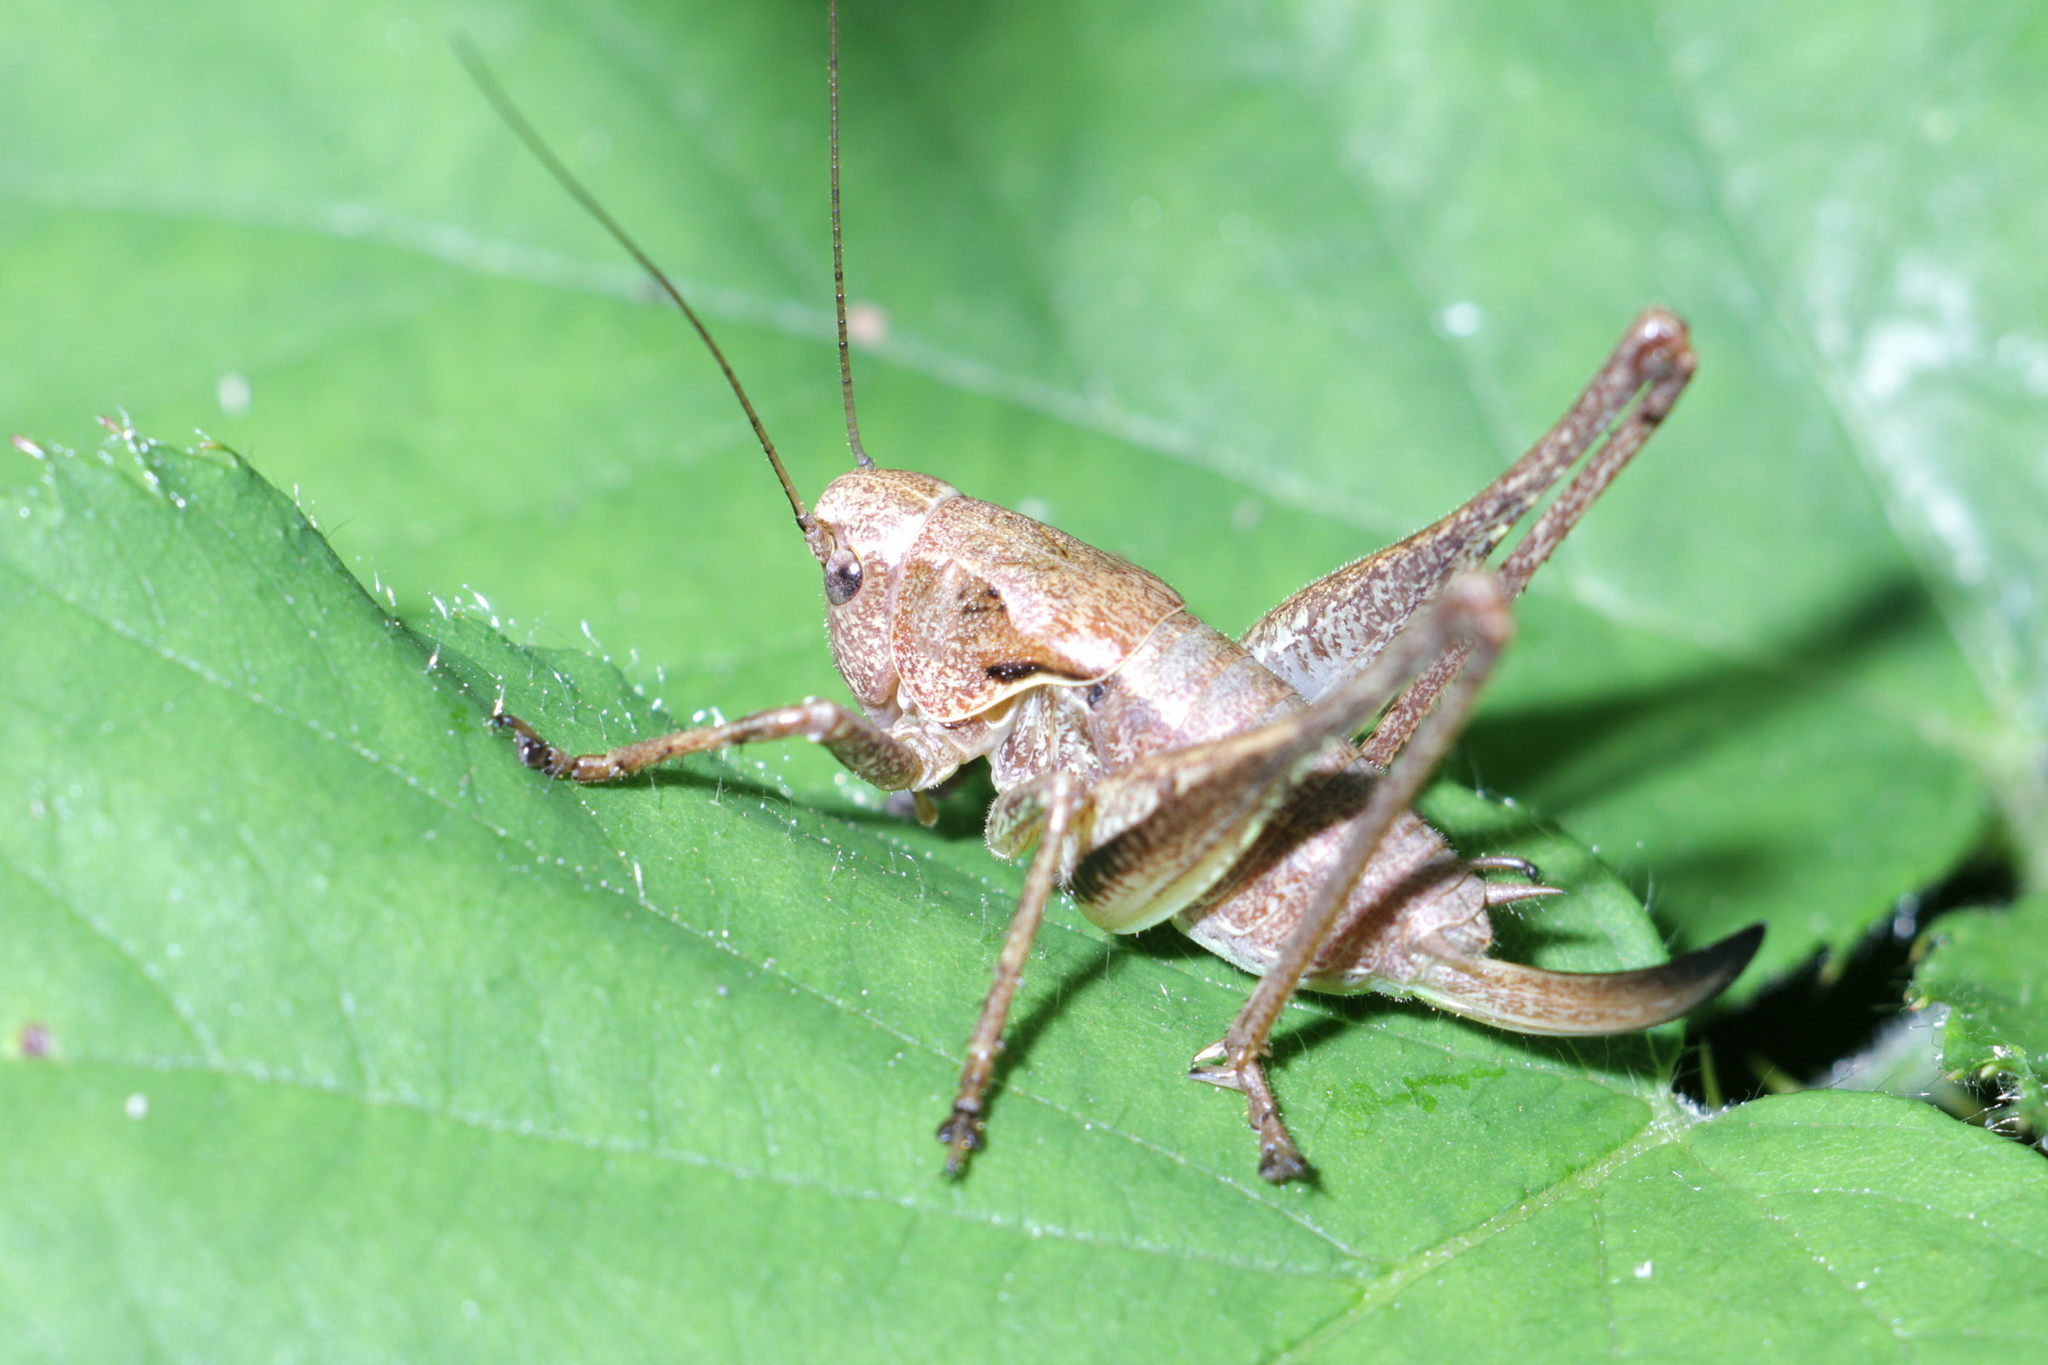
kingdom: Animalia
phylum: Arthropoda
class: Insecta
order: Orthoptera
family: Tettigoniidae
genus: Pholidoptera
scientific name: Pholidoptera griseoaptera
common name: Dark bush-cricket
